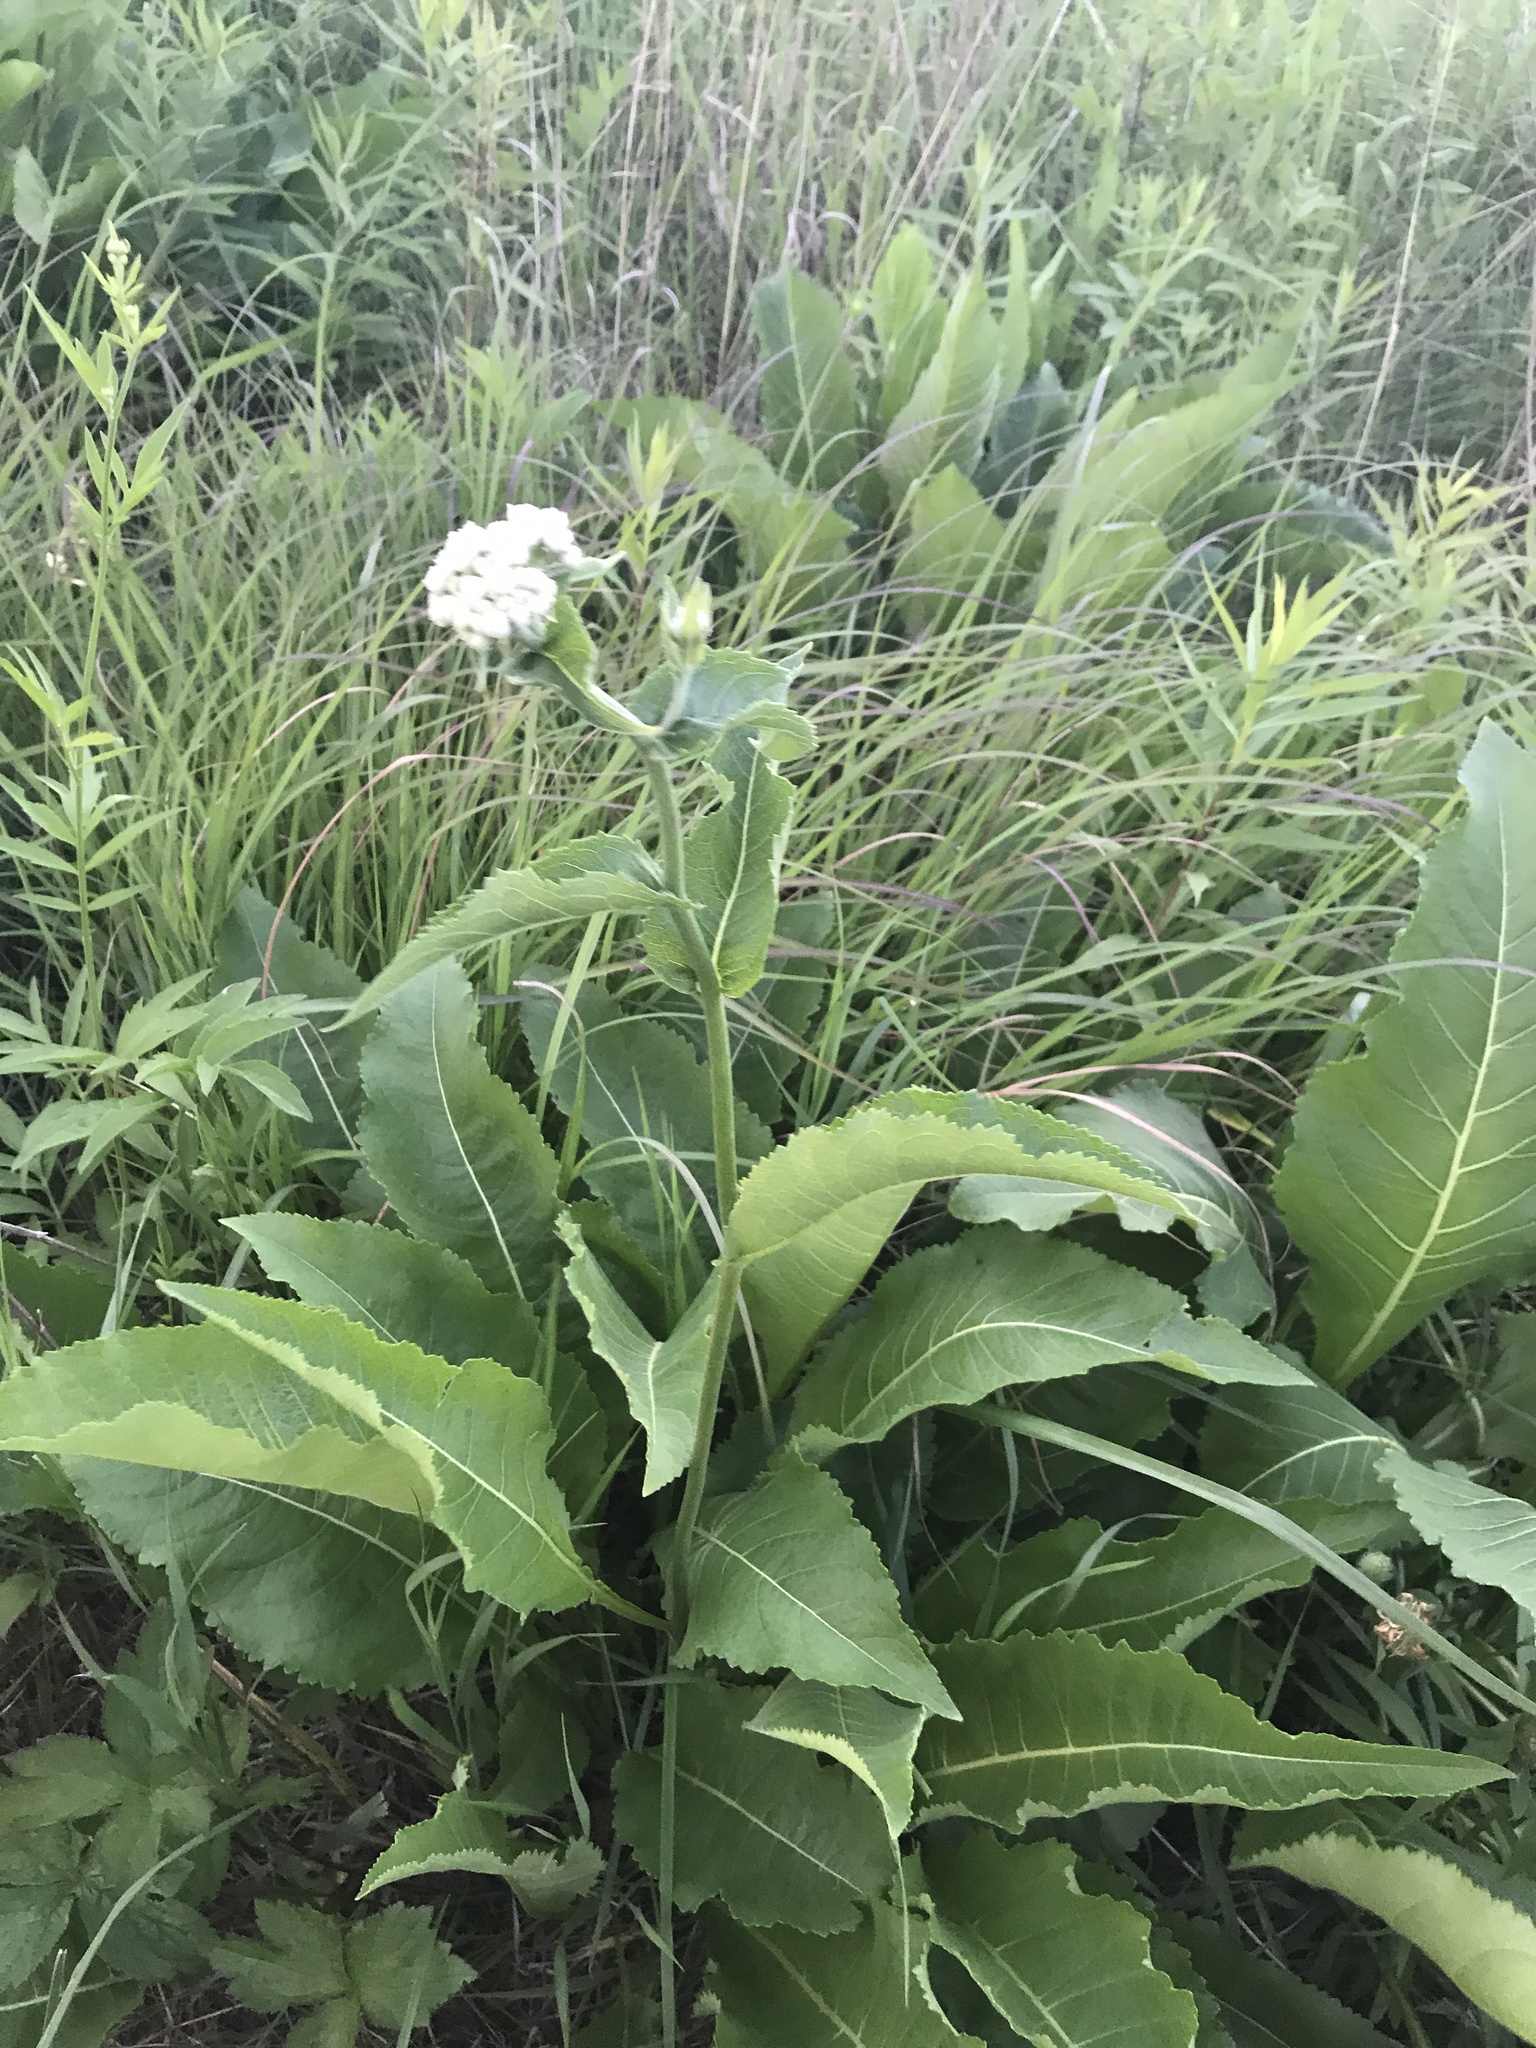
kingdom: Plantae
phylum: Tracheophyta
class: Magnoliopsida
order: Asterales
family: Asteraceae
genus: Parthenium
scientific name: Parthenium integrifolium
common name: American feverfew
